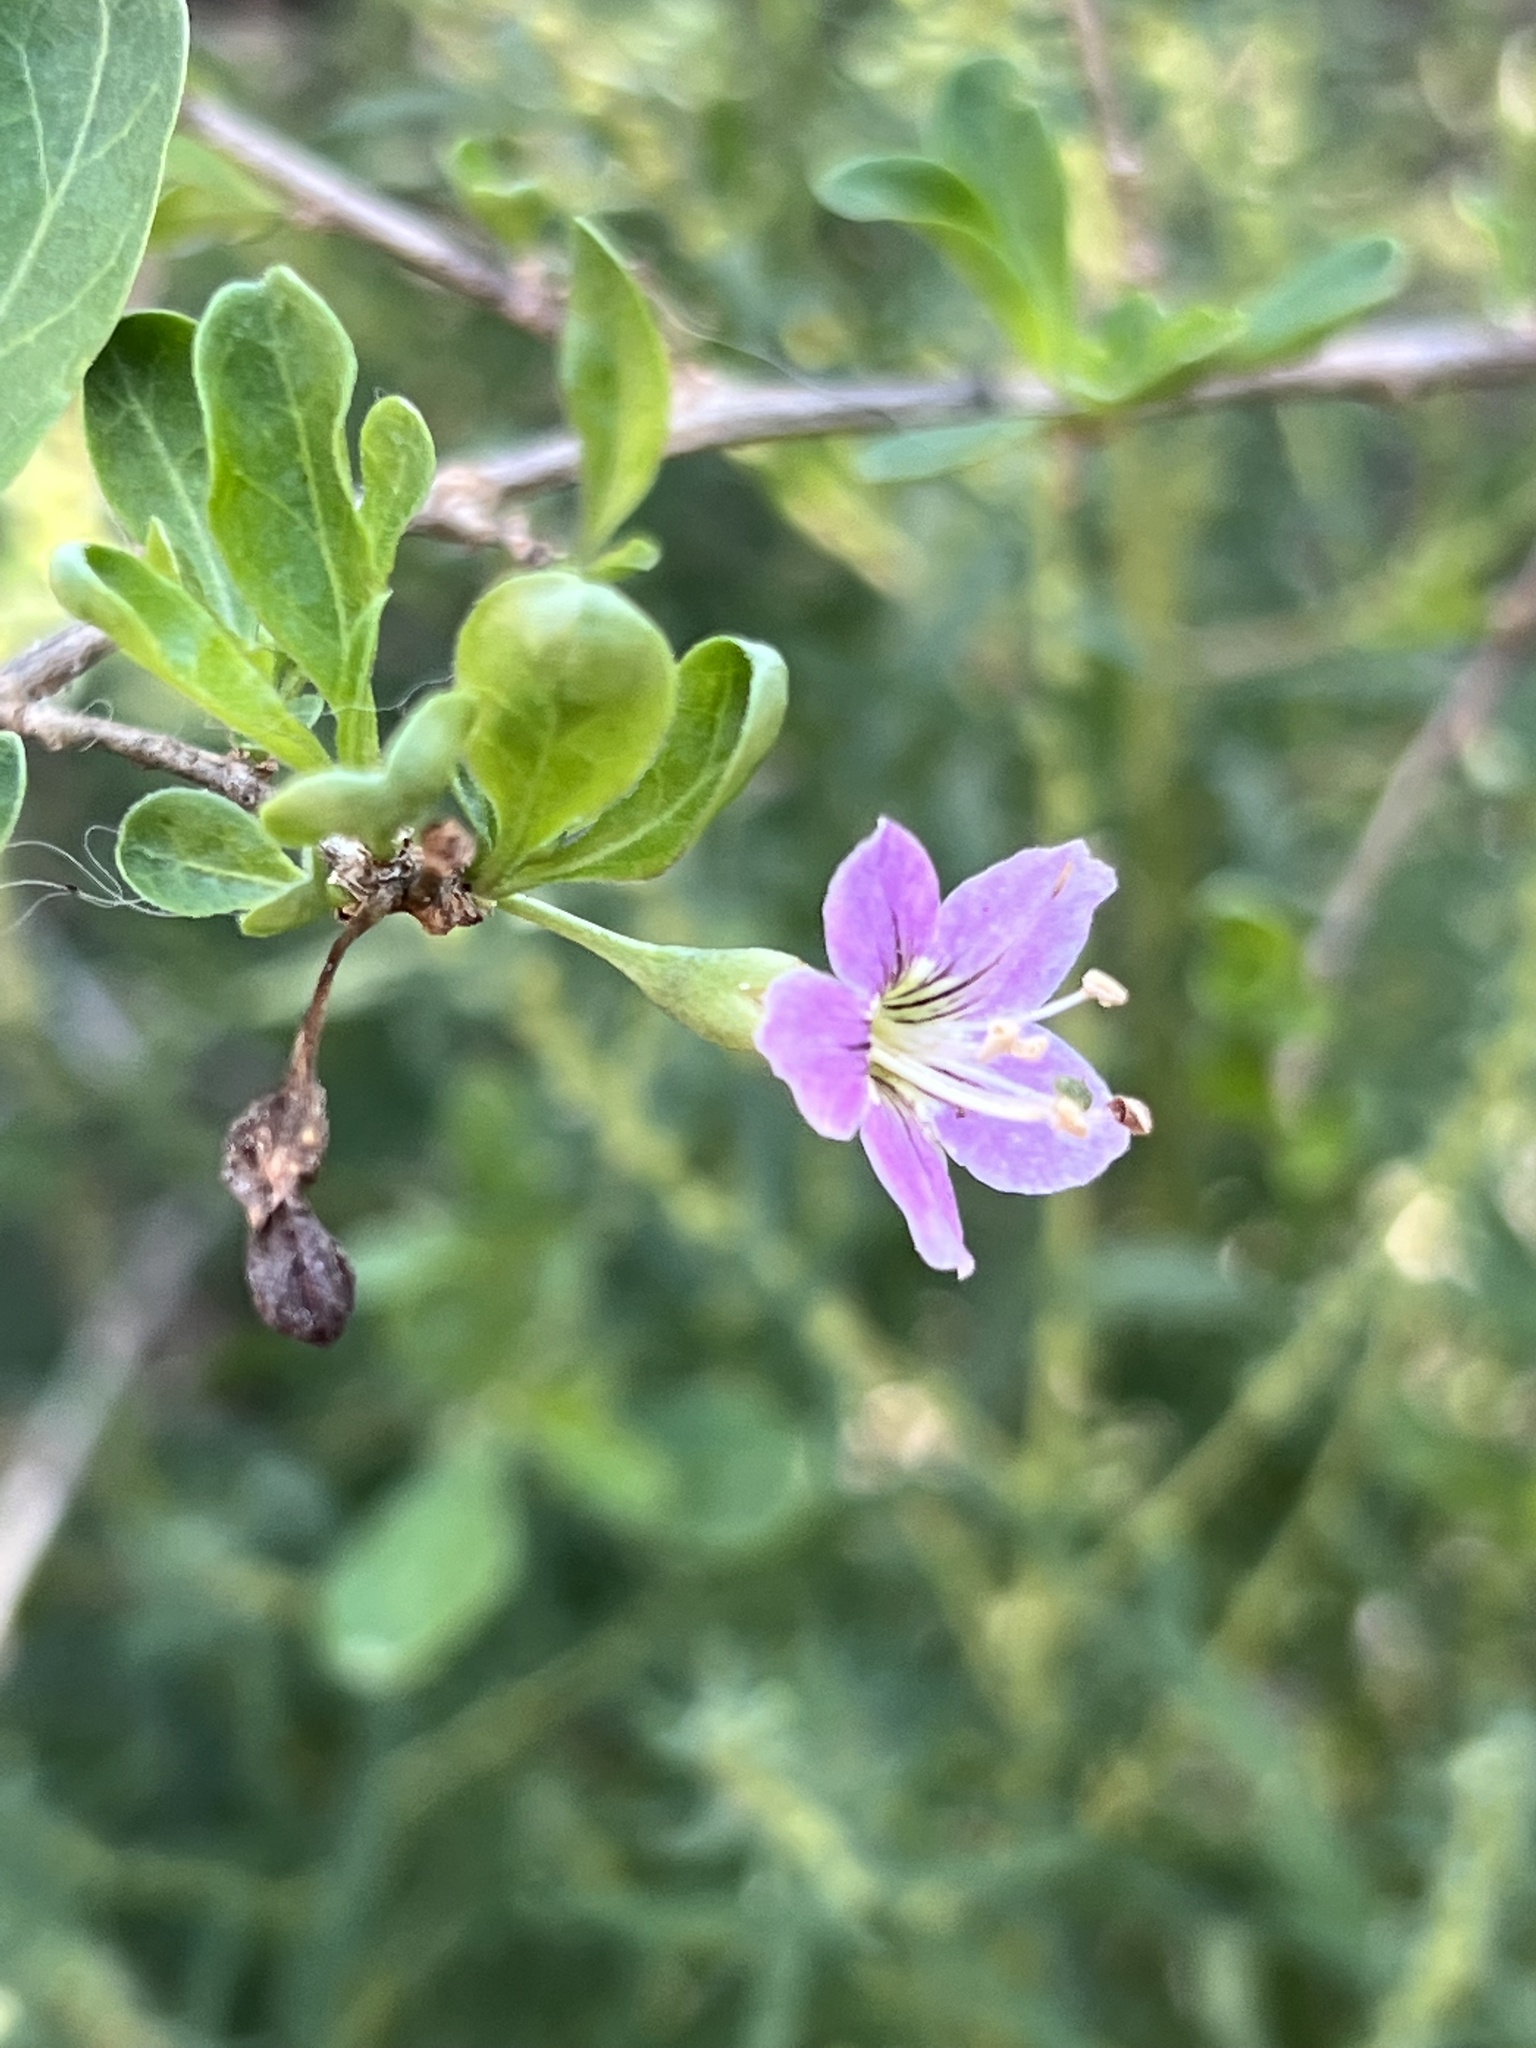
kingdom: Plantae
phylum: Tracheophyta
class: Magnoliopsida
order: Solanales
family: Solanaceae
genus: Lycium
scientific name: Lycium barbarum
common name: Duke of argyll's teaplant
